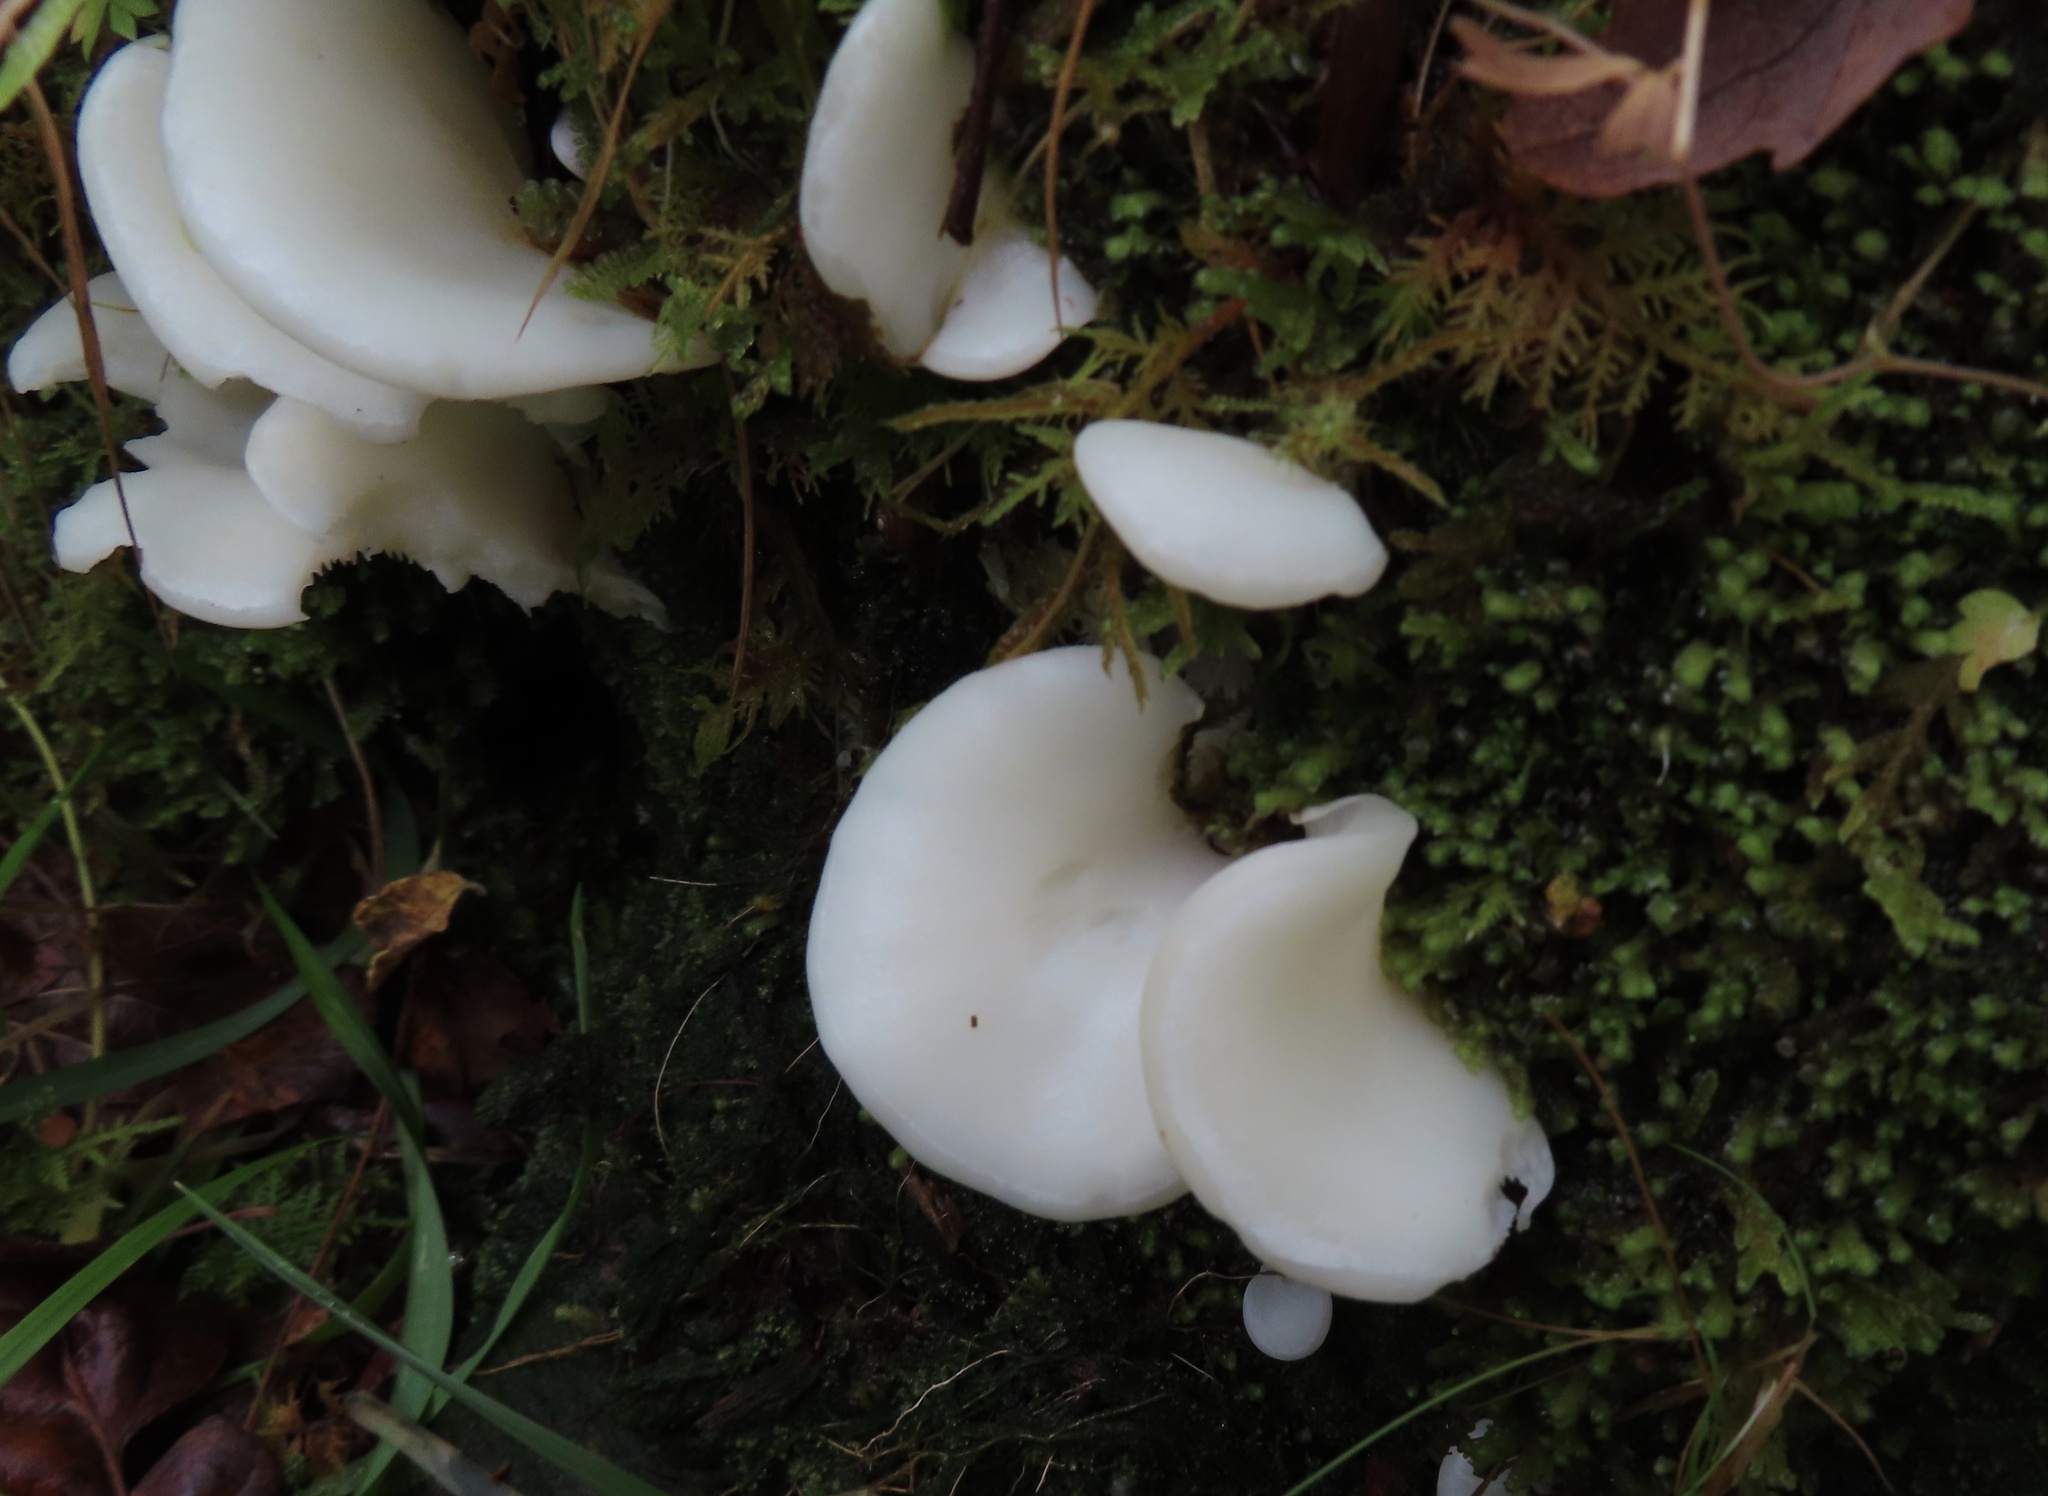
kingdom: Fungi
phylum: Basidiomycota
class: Agaricomycetes
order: Agaricales
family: Marasmiaceae
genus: Pleurocybella
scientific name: Pleurocybella porrigens
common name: Angel's wings
